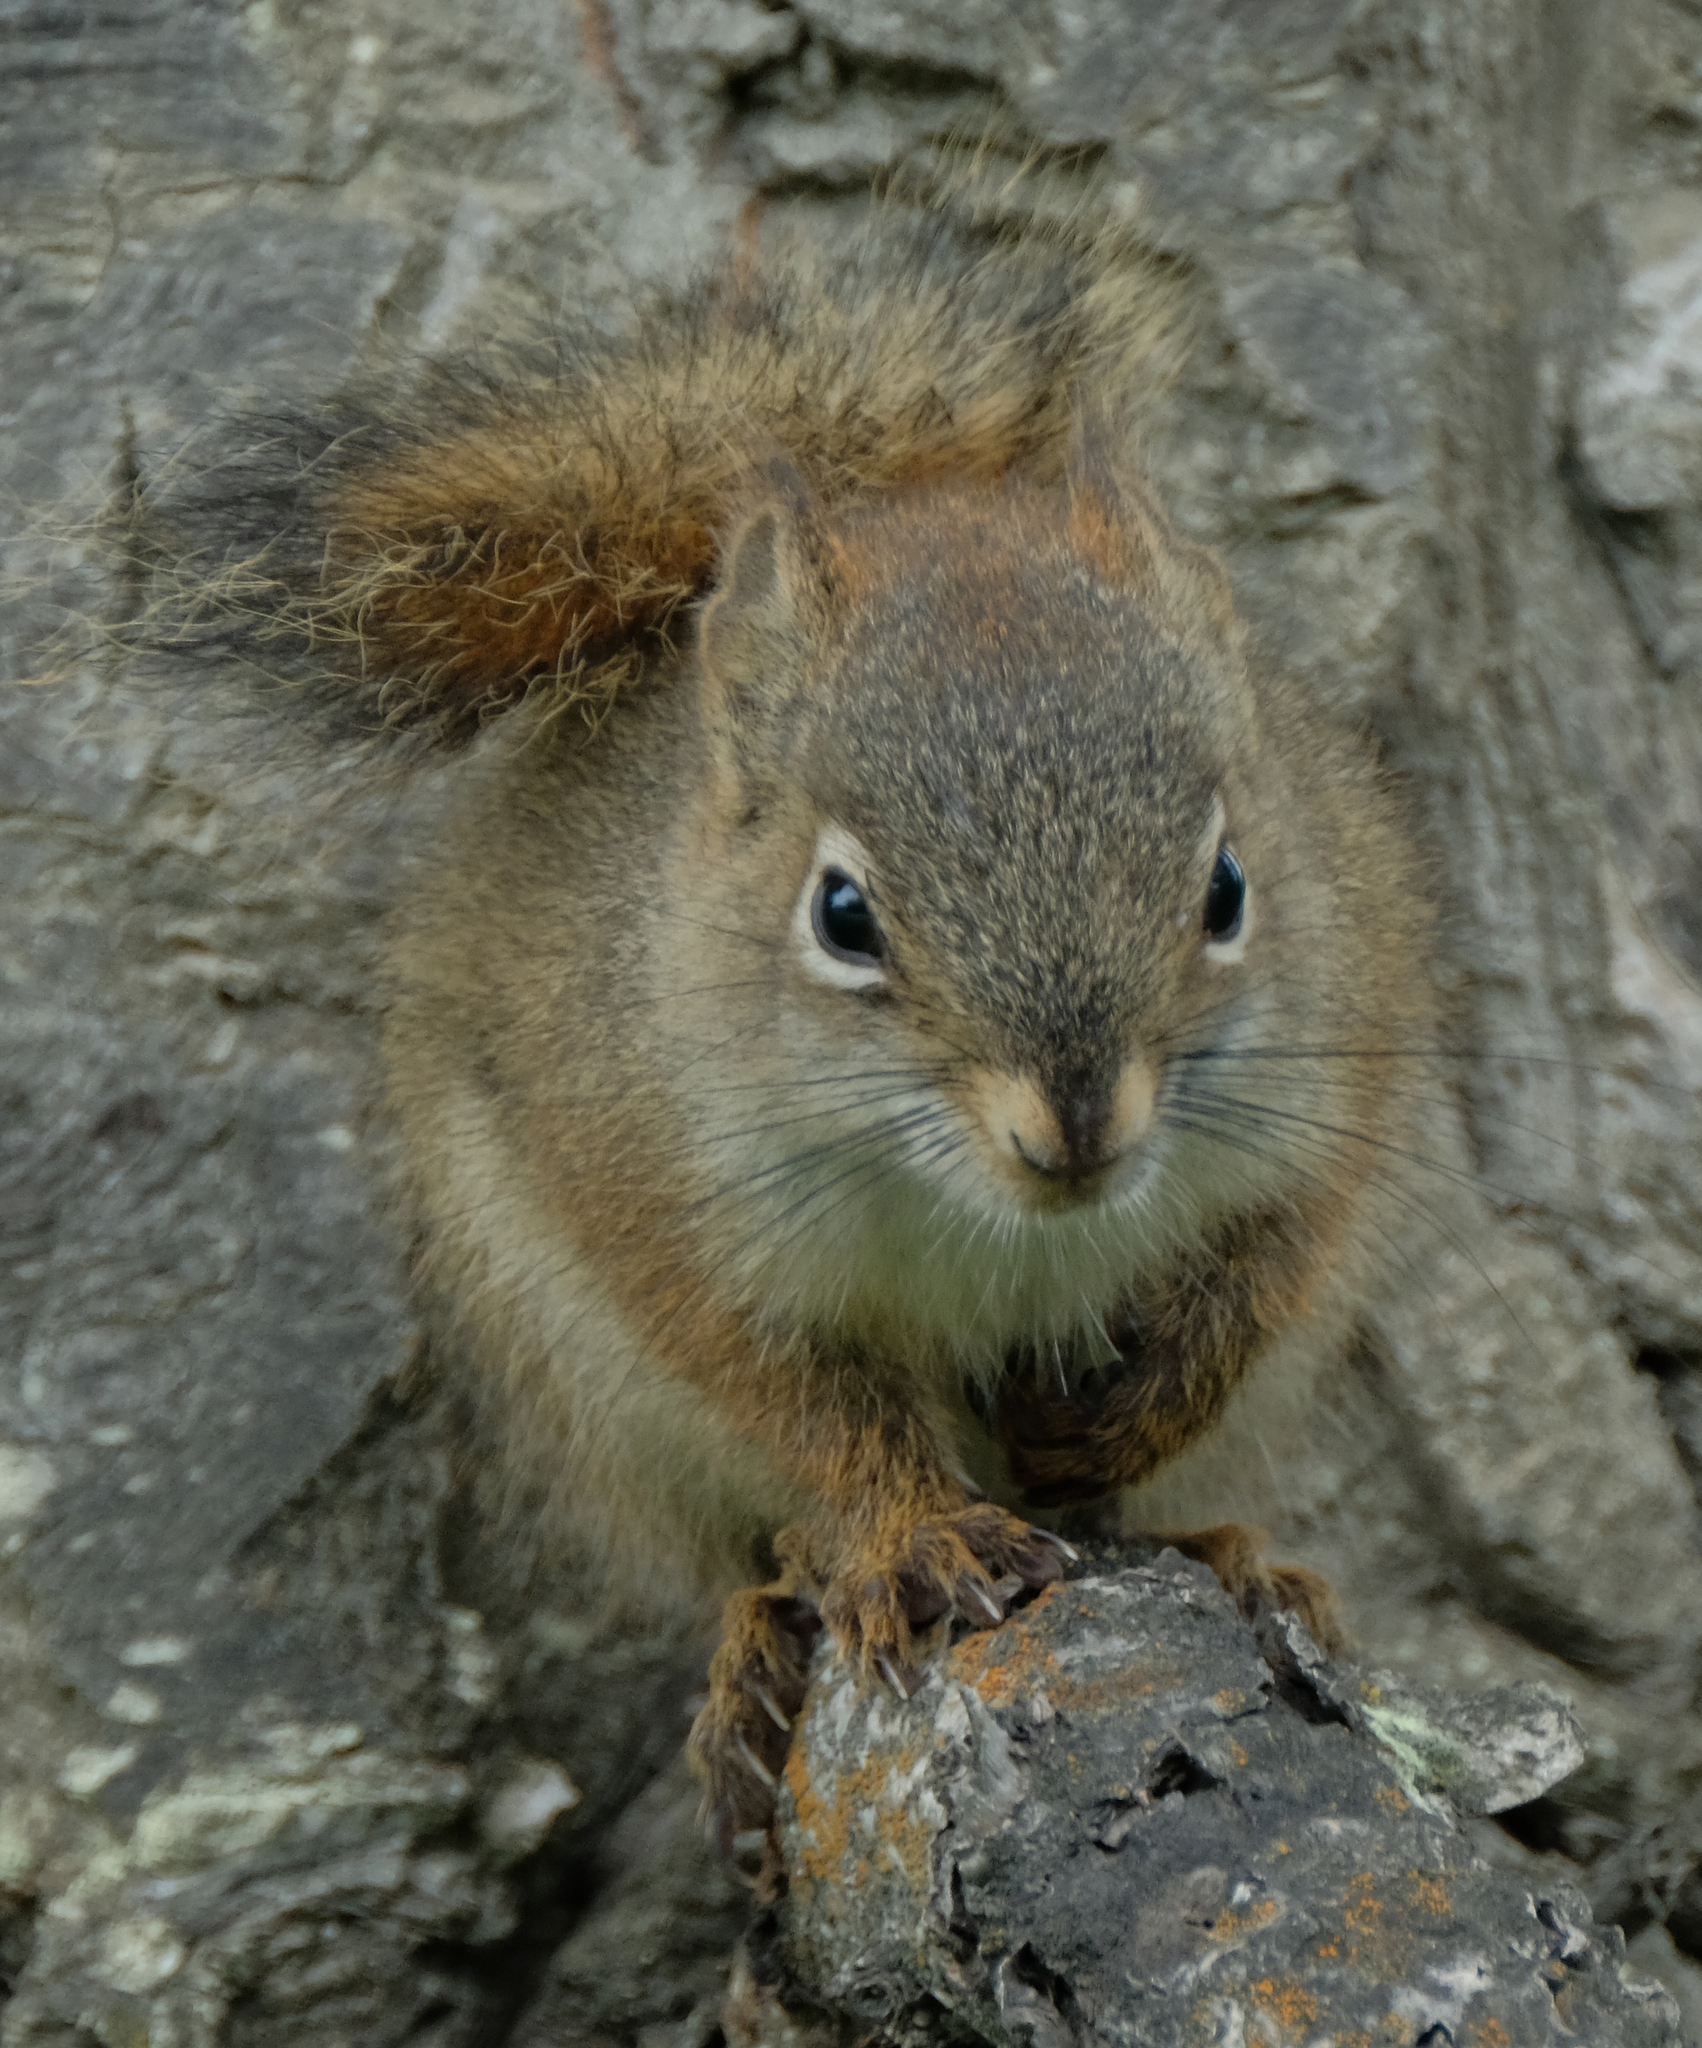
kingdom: Animalia
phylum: Chordata
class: Mammalia
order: Rodentia
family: Sciuridae
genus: Tamiasciurus
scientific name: Tamiasciurus hudsonicus
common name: Red squirrel
